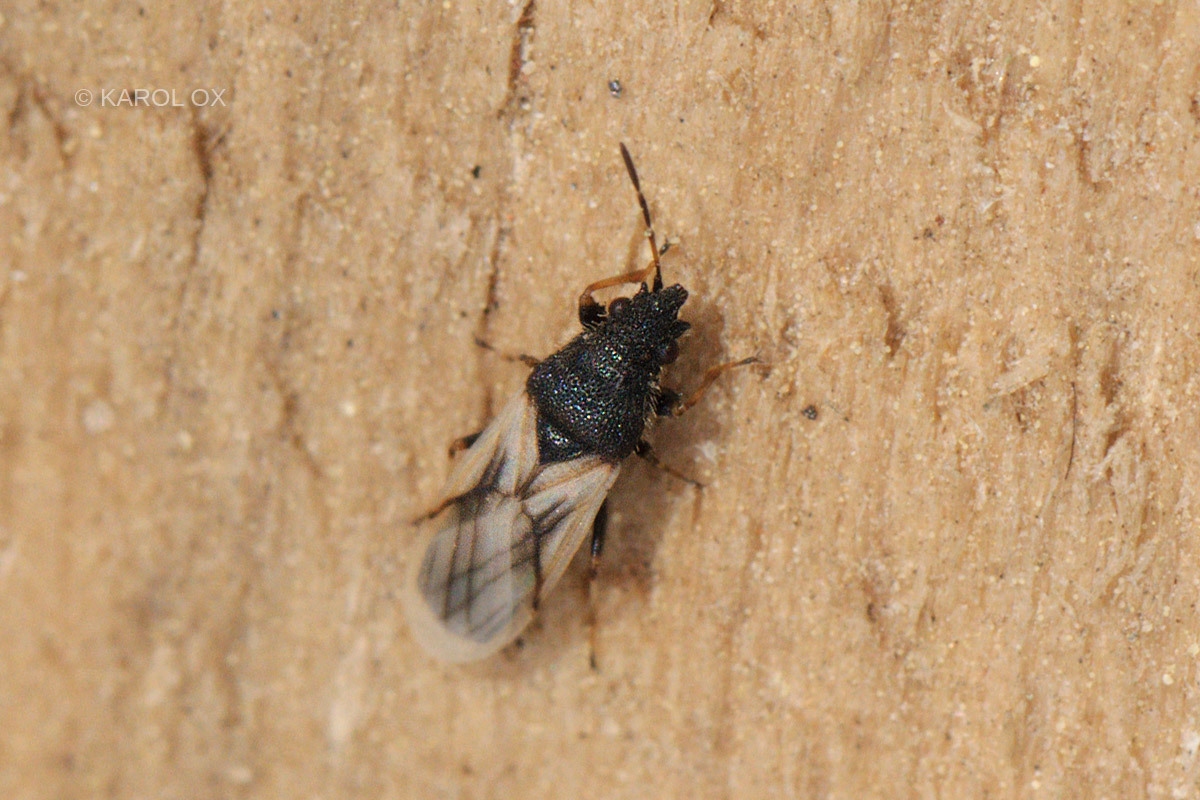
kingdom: Animalia
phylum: Arthropoda
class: Insecta
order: Hemiptera
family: Oxycarenidae
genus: Metopoplax
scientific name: Metopoplax origani
